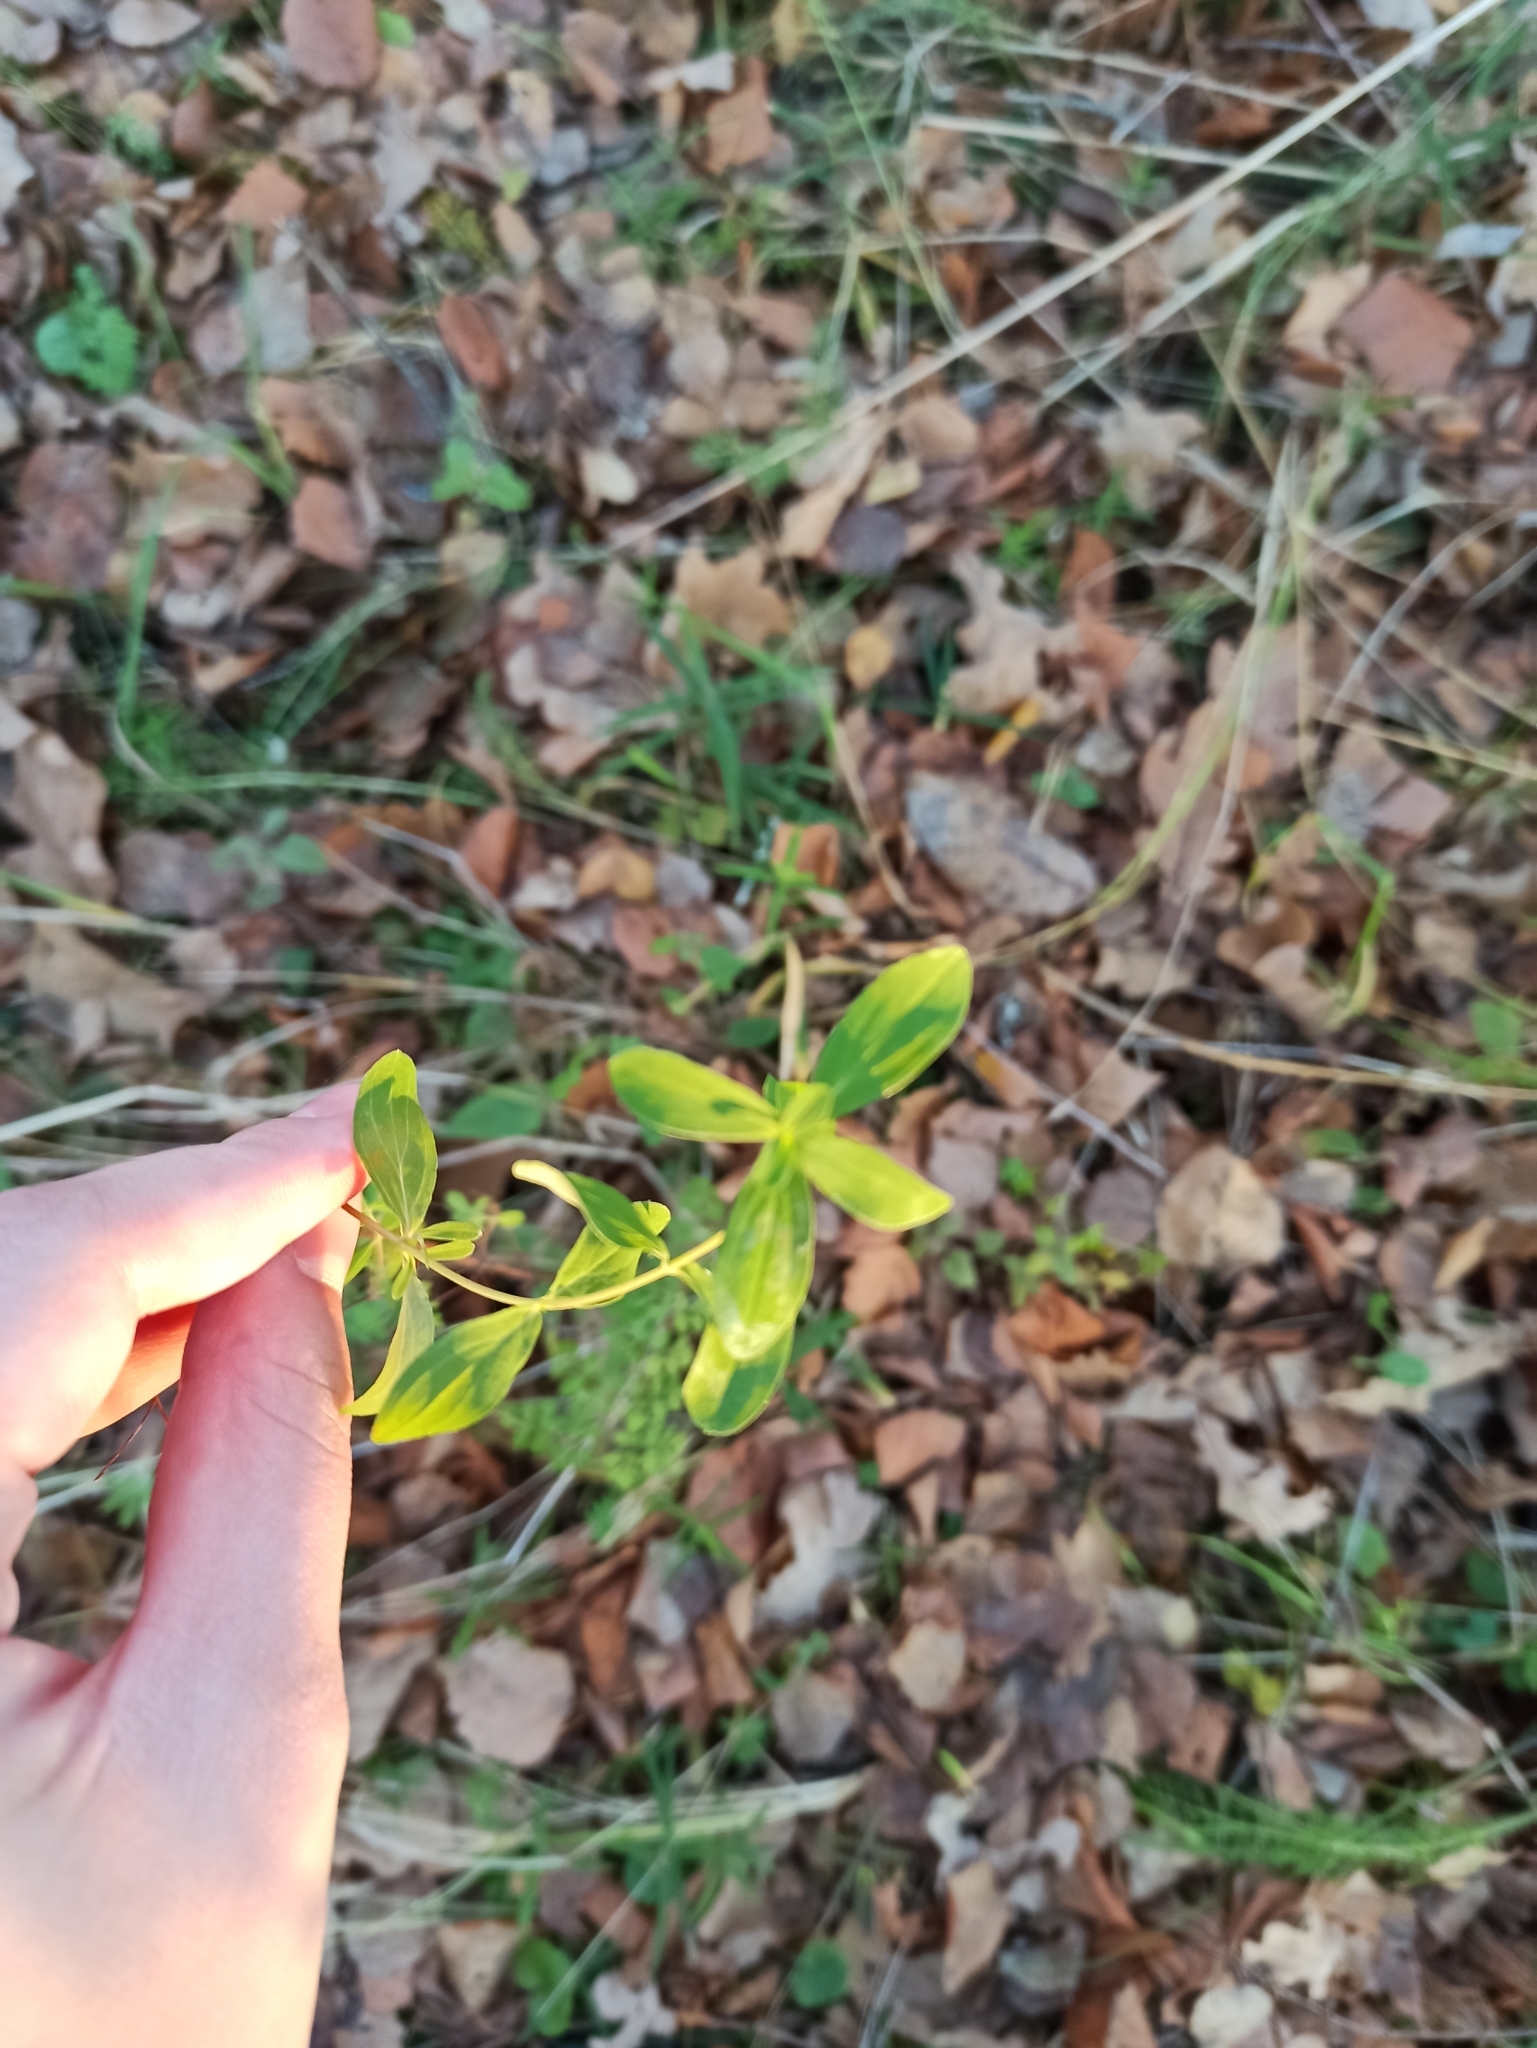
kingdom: Plantae
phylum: Tracheophyta
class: Magnoliopsida
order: Malpighiales
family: Hypericaceae
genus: Hypericum
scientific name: Hypericum perforatum
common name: Common st. johnswort
